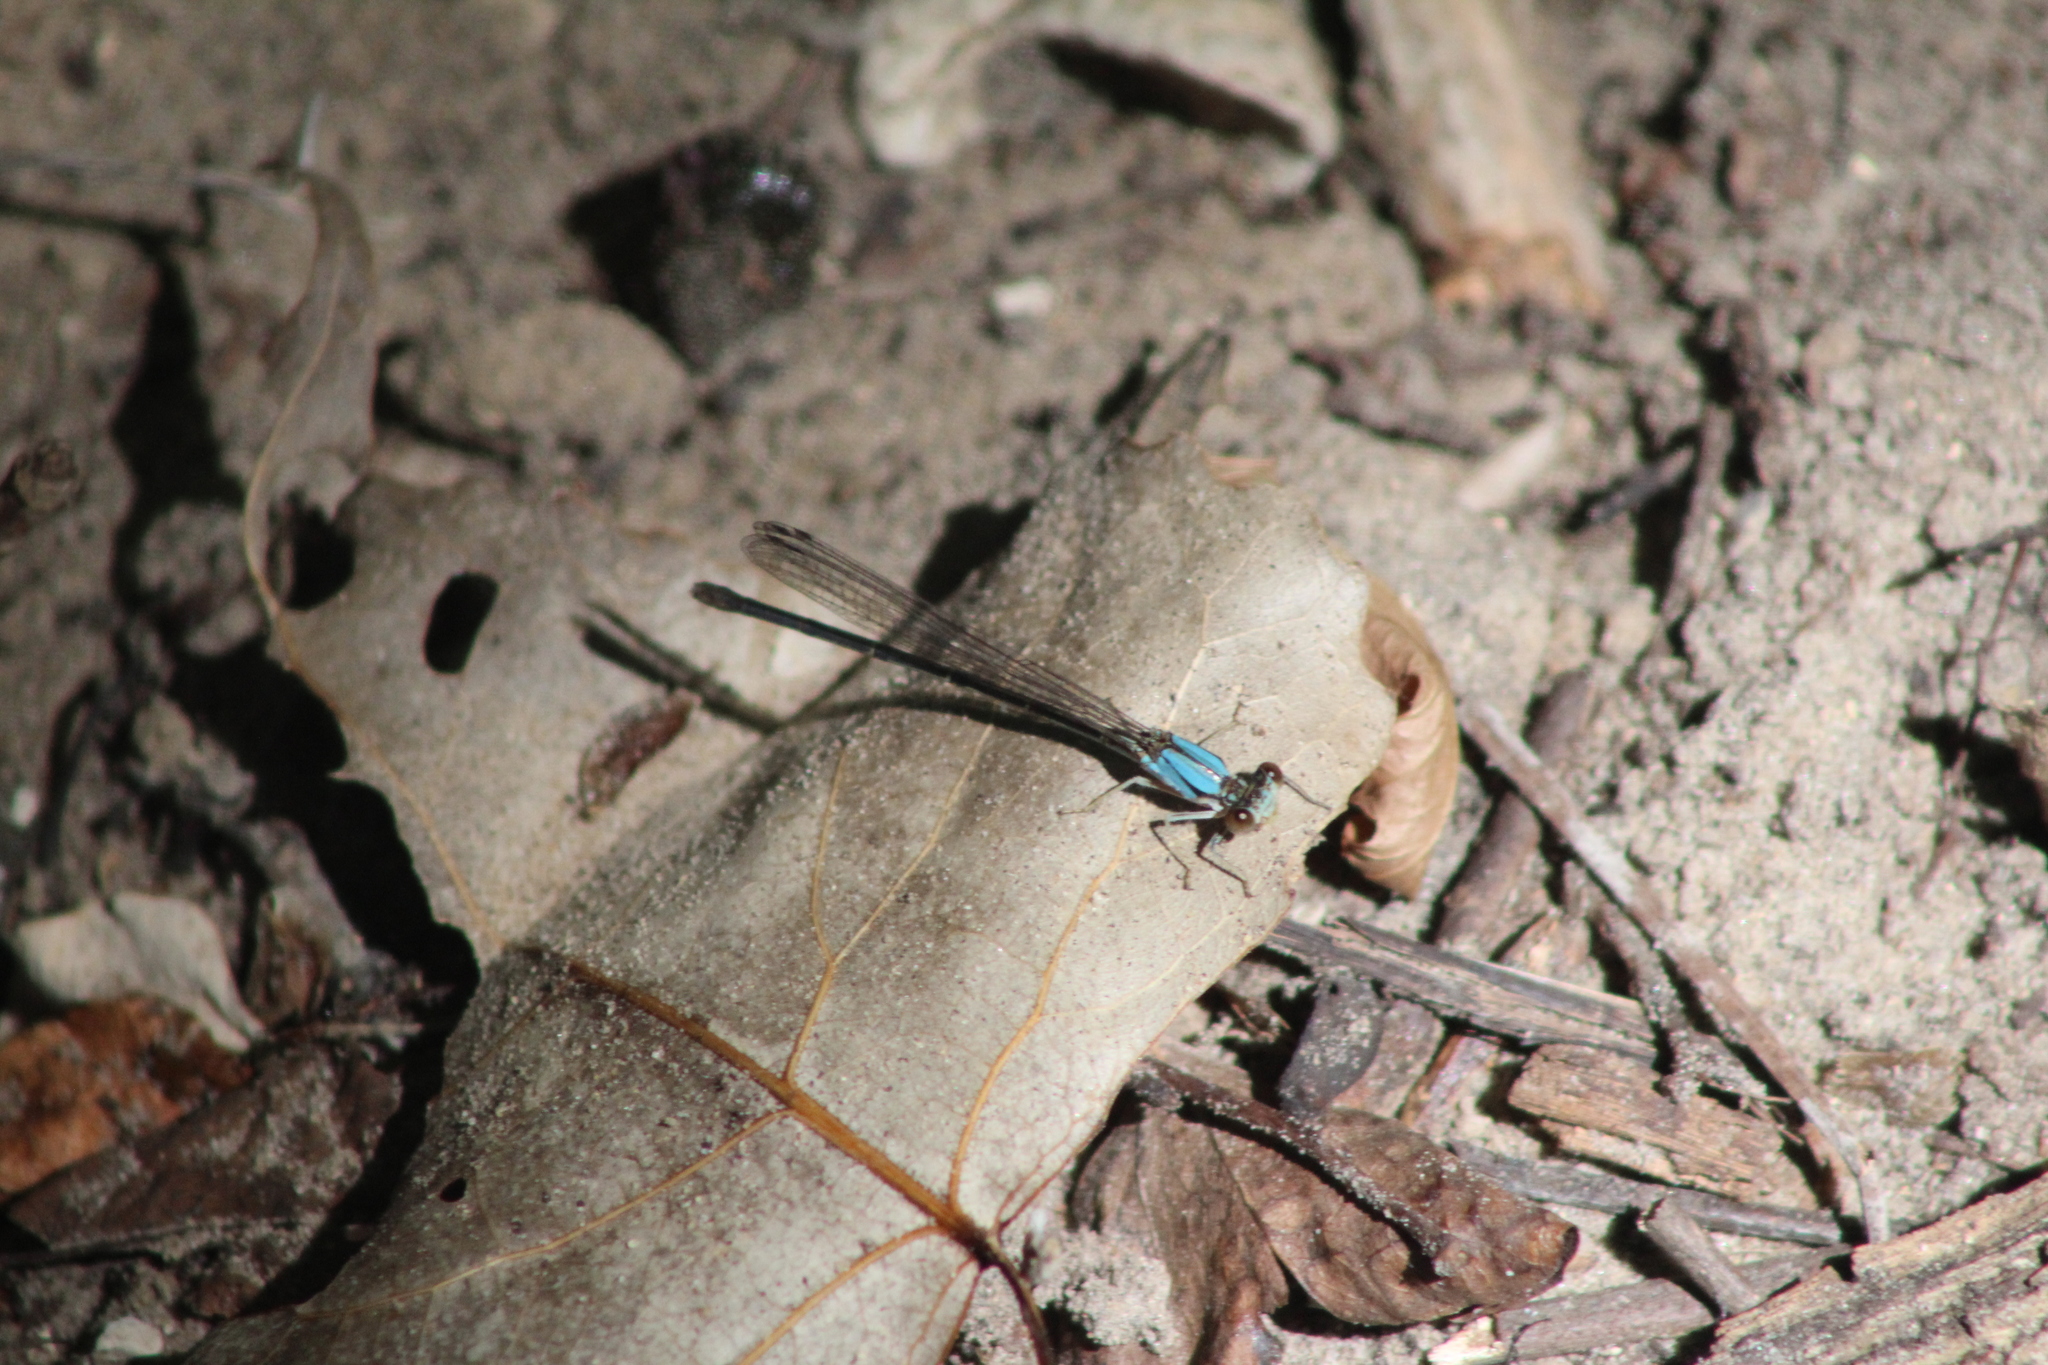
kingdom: Animalia
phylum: Arthropoda
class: Insecta
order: Odonata
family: Coenagrionidae
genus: Argia
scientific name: Argia apicalis
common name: Blue-fronted dancer
